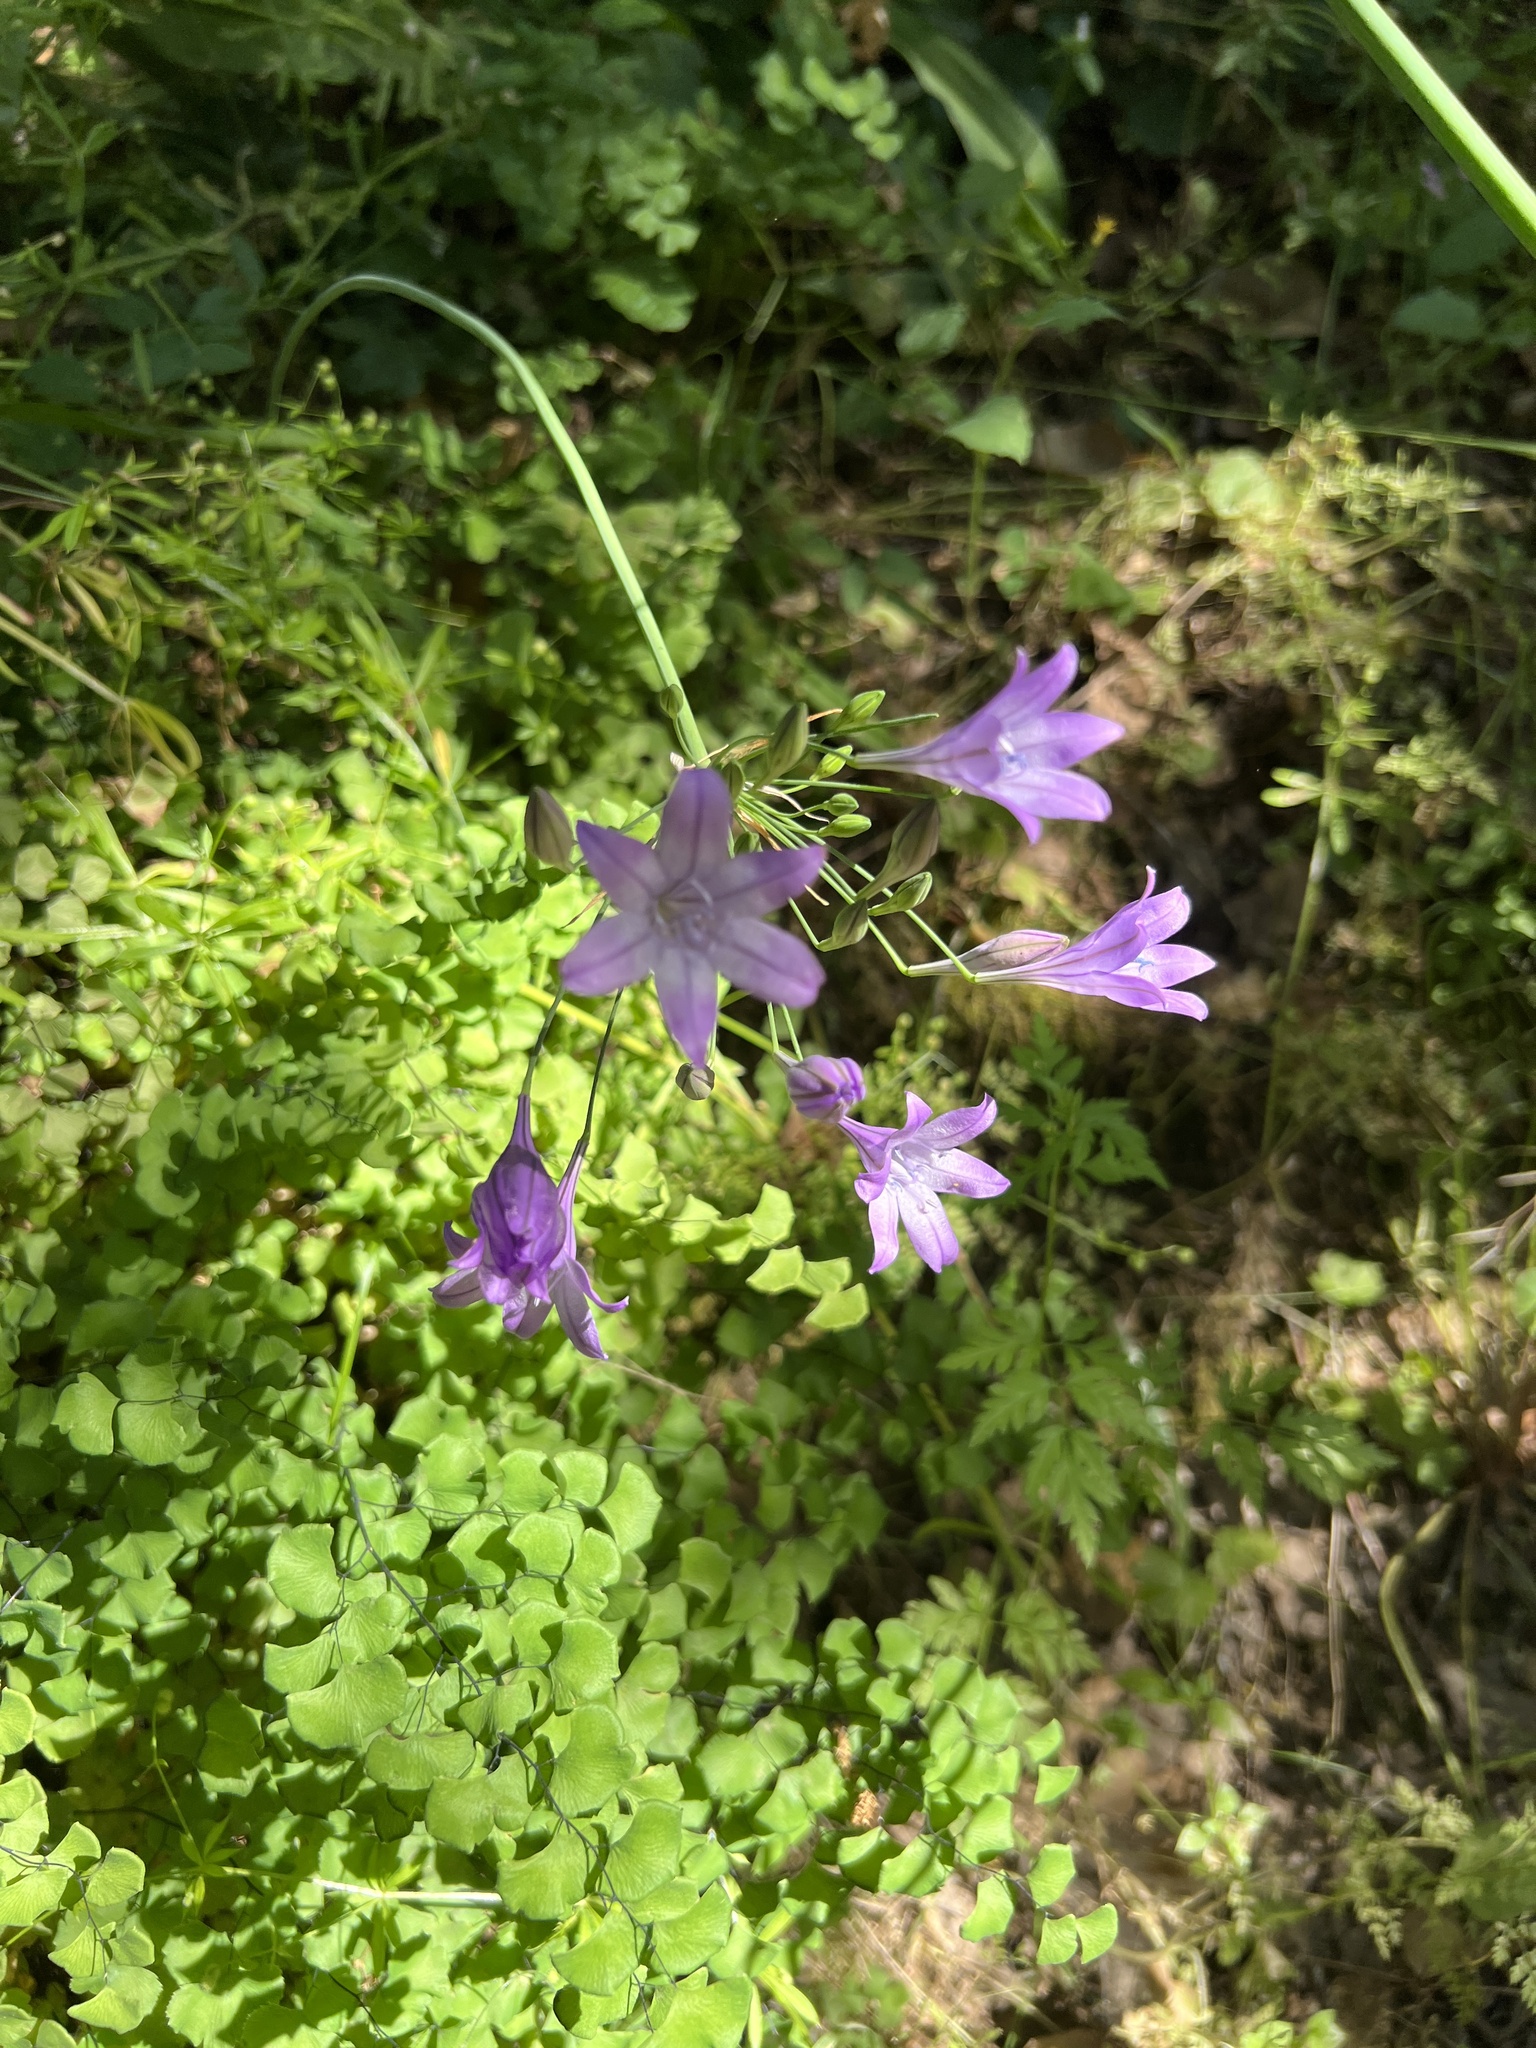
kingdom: Plantae
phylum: Tracheophyta
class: Liliopsida
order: Asparagales
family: Asparagaceae
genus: Triteleia
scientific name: Triteleia laxa
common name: Triplet-lily
